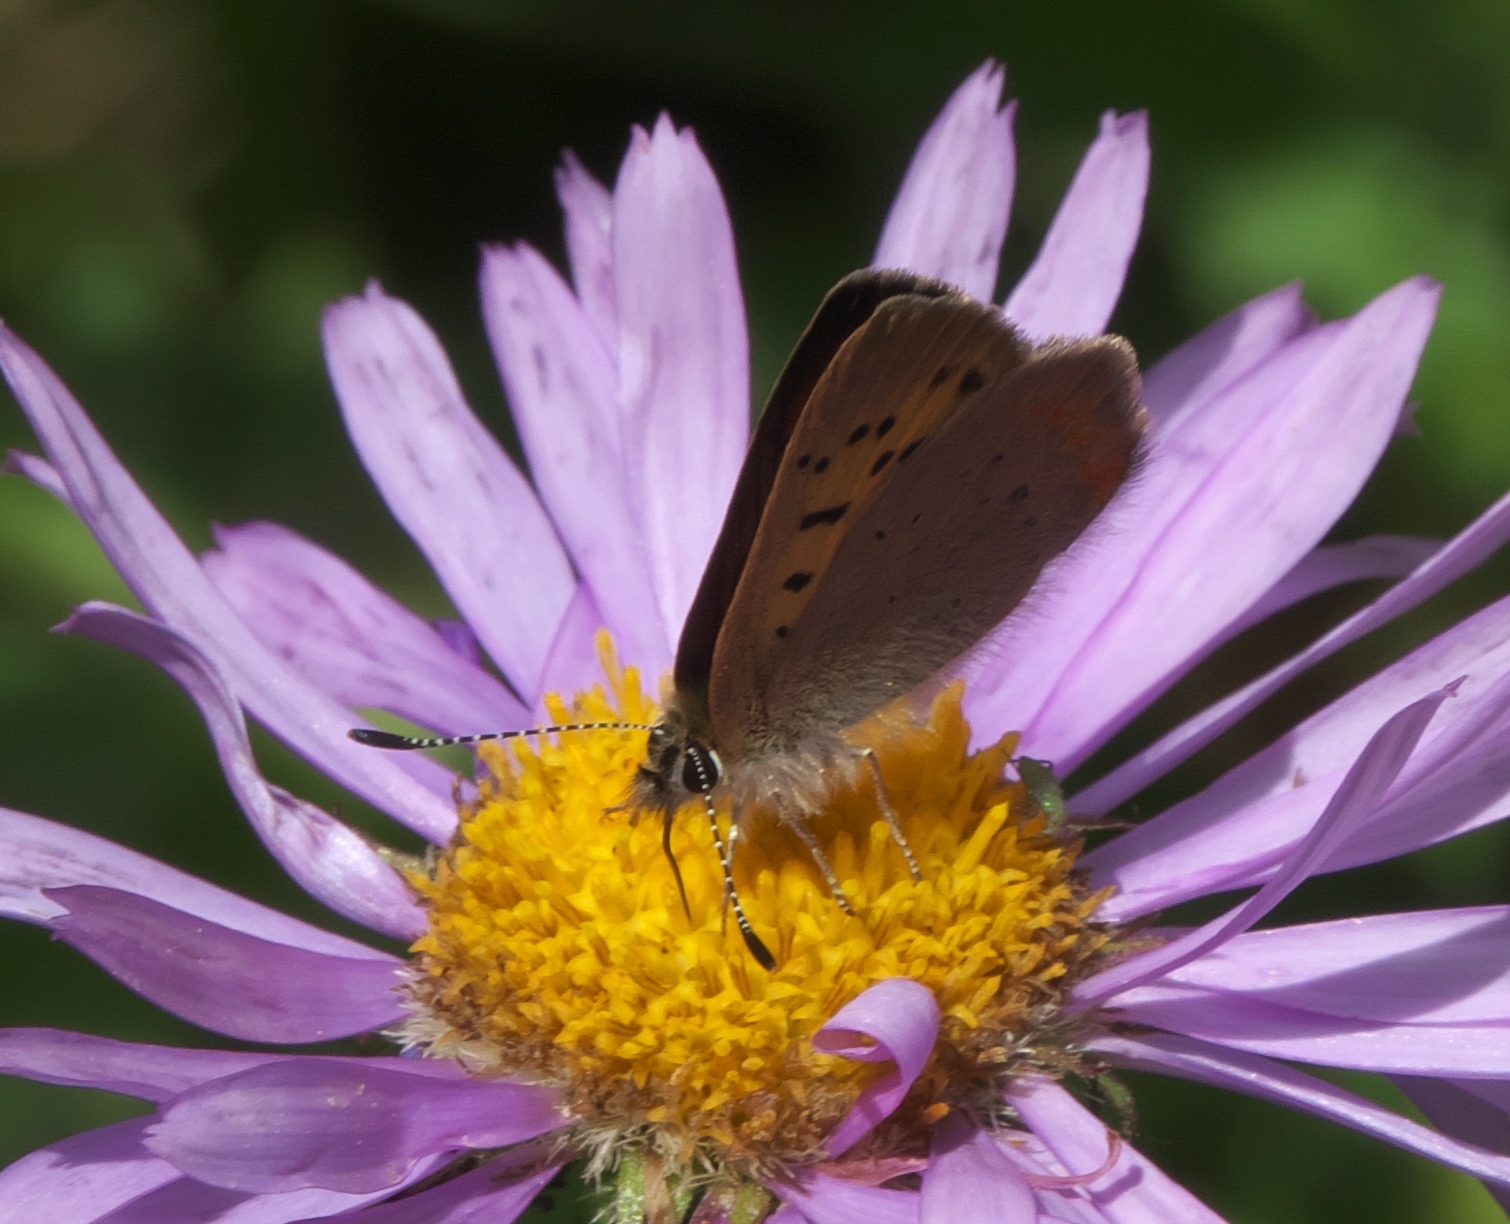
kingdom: Animalia
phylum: Arthropoda
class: Insecta
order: Lepidoptera
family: Lycaenidae
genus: Tharsalea
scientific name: Tharsalea dorcas
